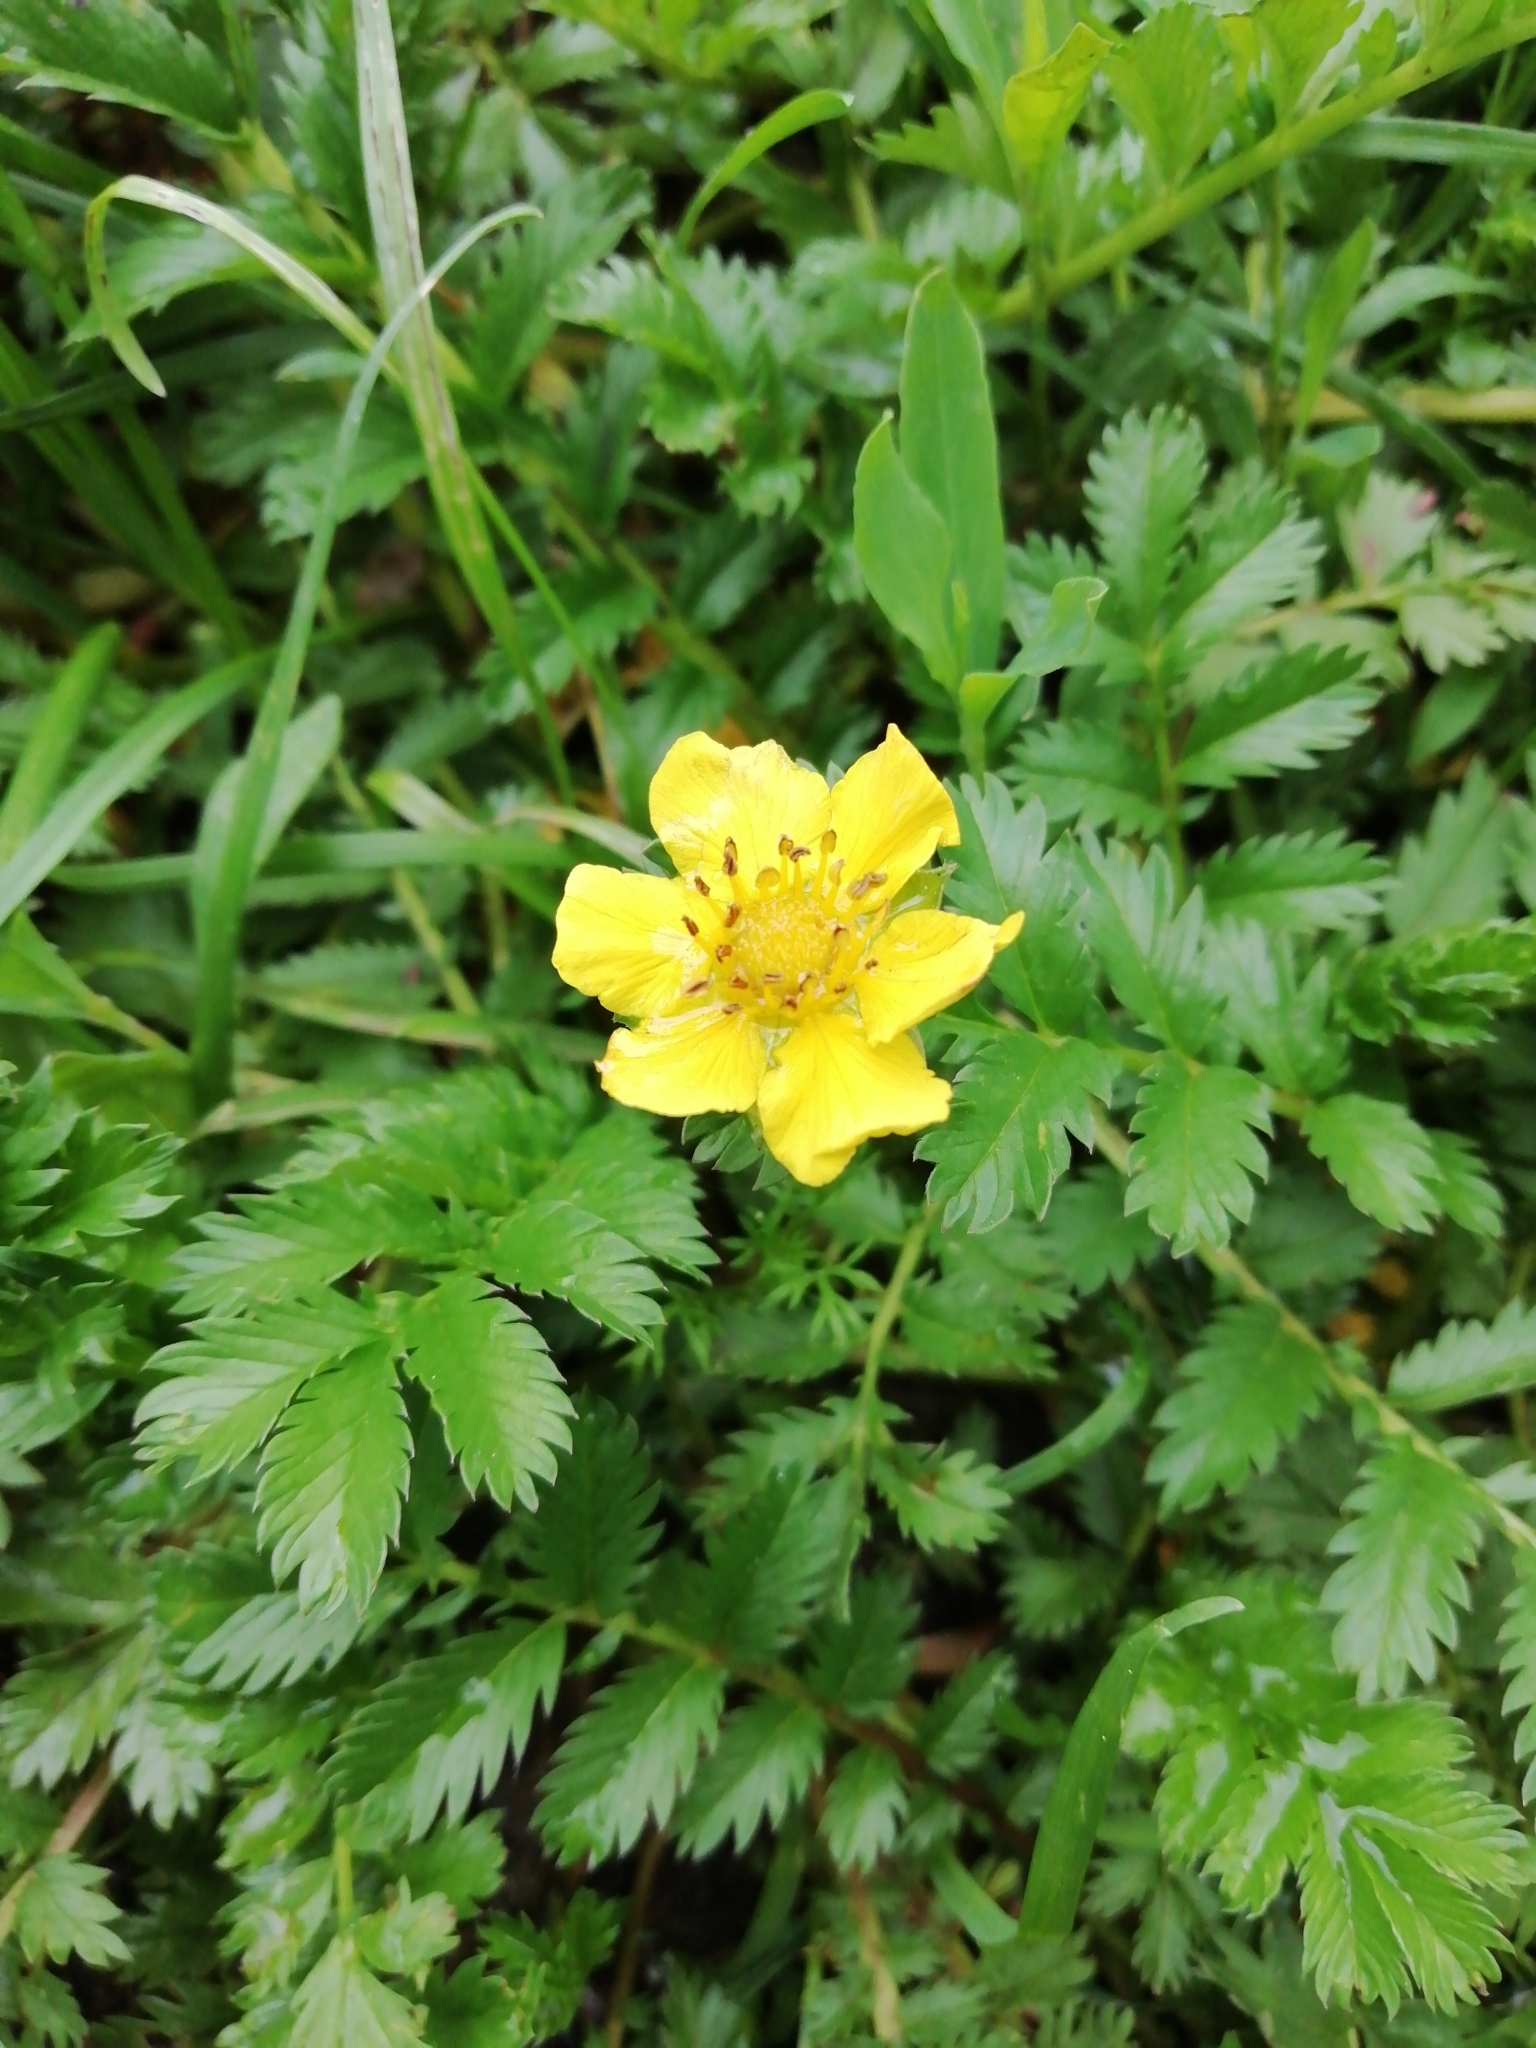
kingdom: Plantae
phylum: Tracheophyta
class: Magnoliopsida
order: Rosales
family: Rosaceae
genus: Argentina
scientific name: Argentina anserina
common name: Common silverweed
